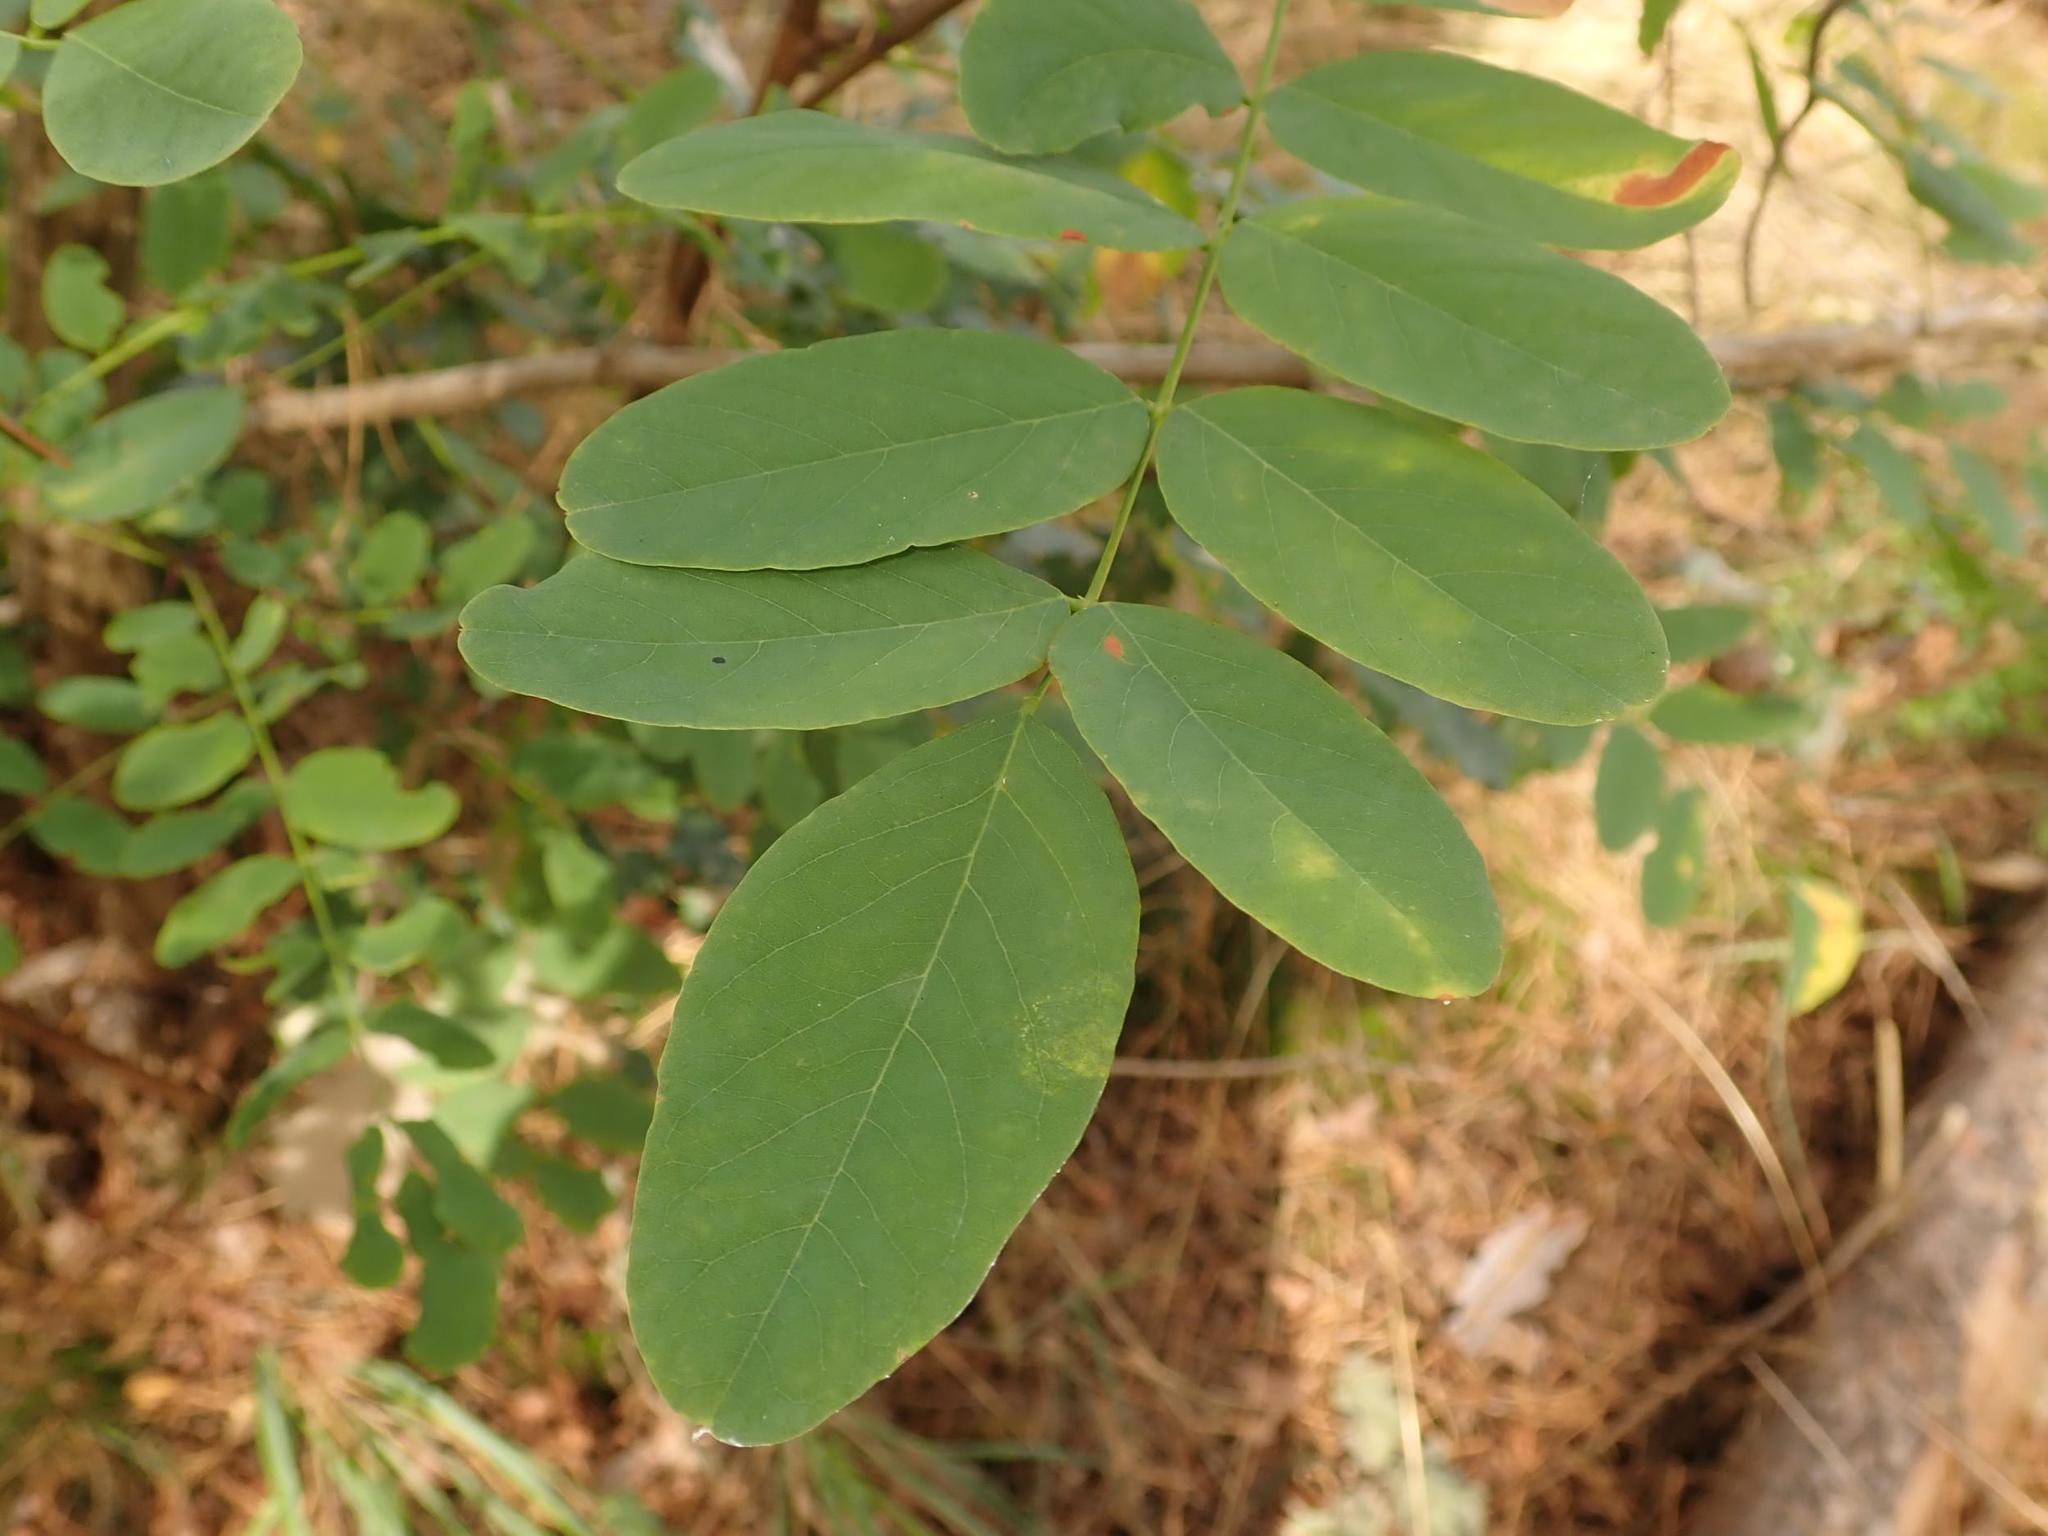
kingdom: Plantae
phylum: Tracheophyta
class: Magnoliopsida
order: Fabales
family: Fabaceae
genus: Robinia
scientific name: Robinia pseudoacacia
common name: Black locust
